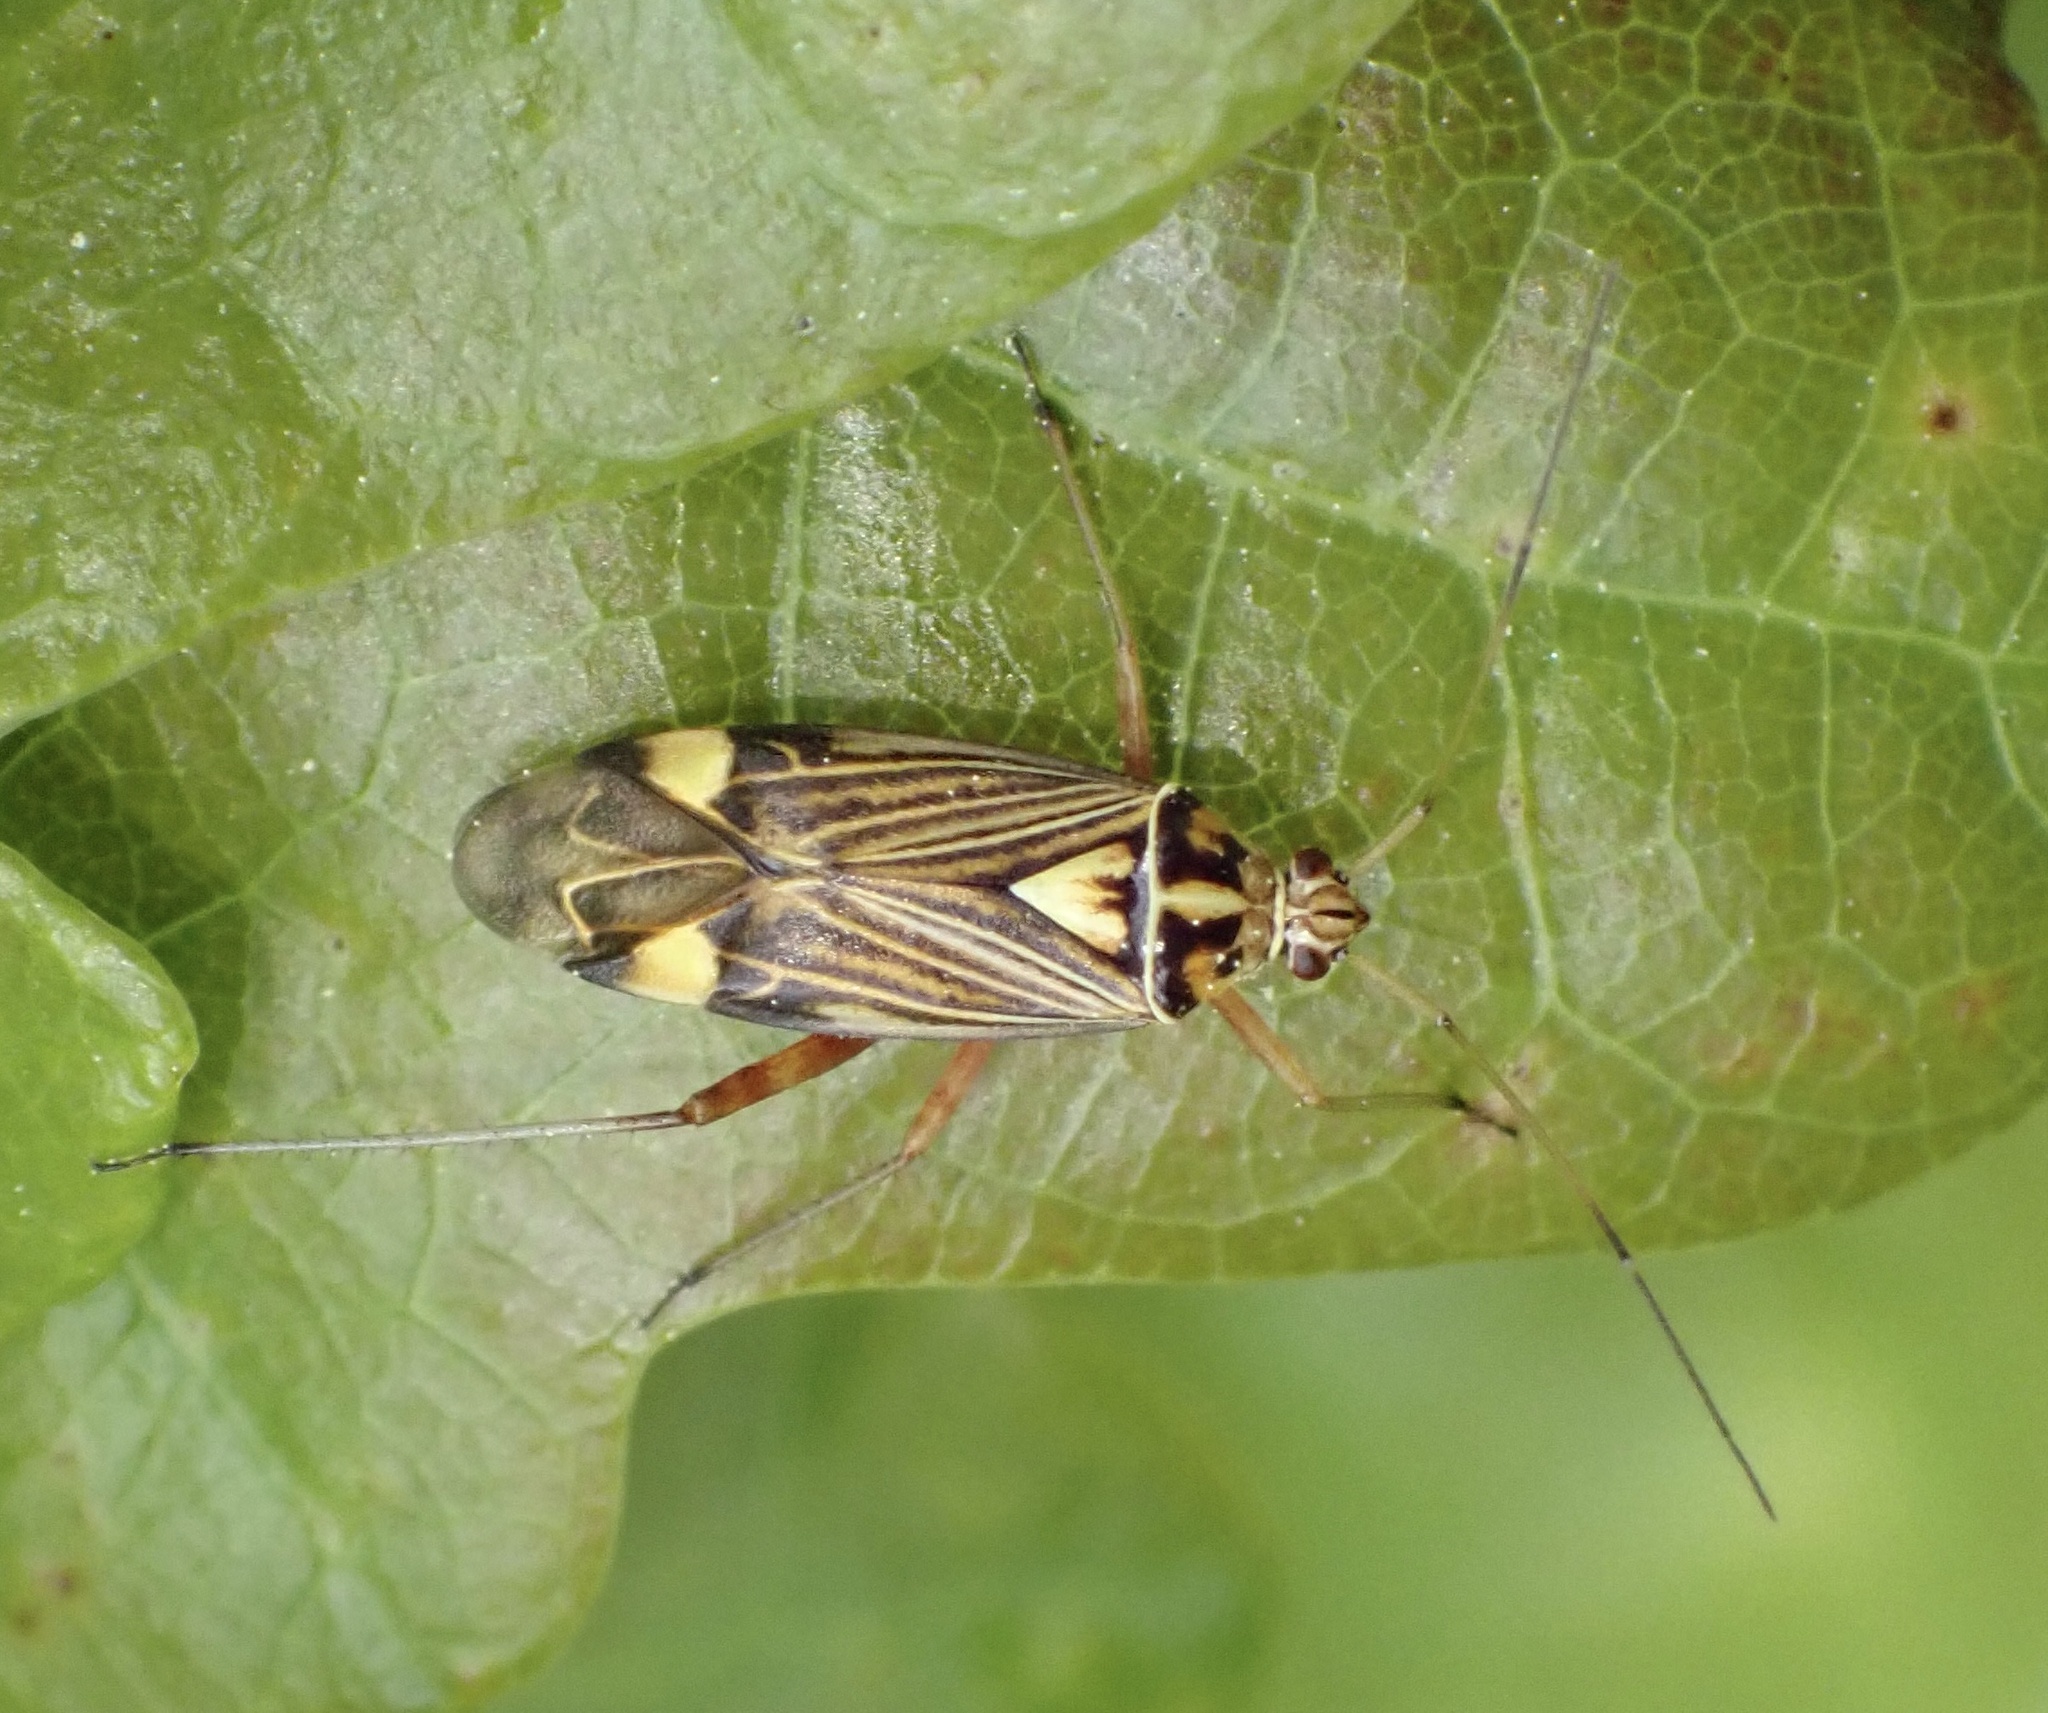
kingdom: Animalia
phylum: Arthropoda
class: Insecta
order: Hemiptera
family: Miridae
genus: Rhabdomiris
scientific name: Rhabdomiris striatellus
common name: Plant bug
